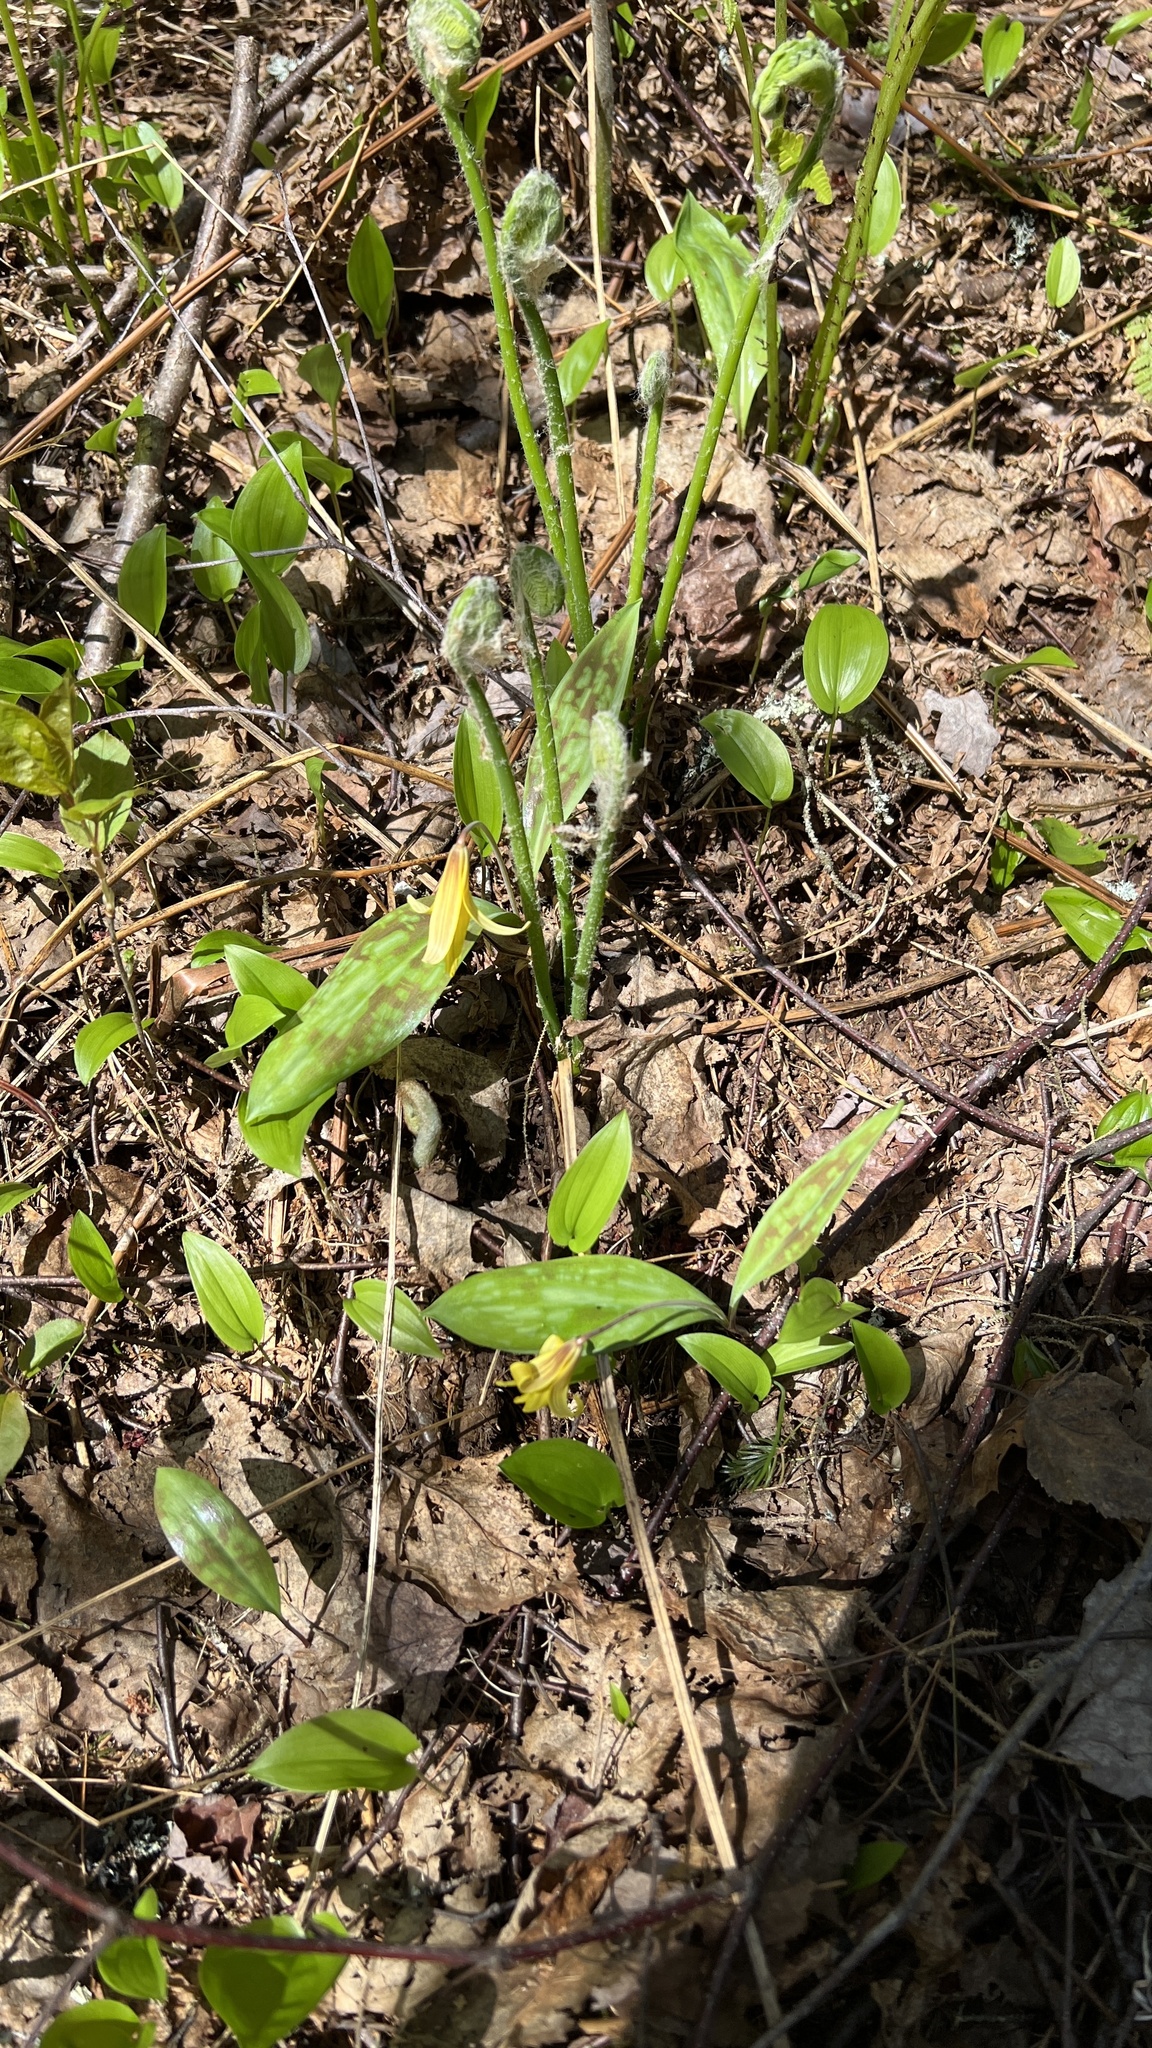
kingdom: Plantae
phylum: Tracheophyta
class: Liliopsida
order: Liliales
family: Liliaceae
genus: Erythronium
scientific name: Erythronium americanum
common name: Yellow adder's-tongue
